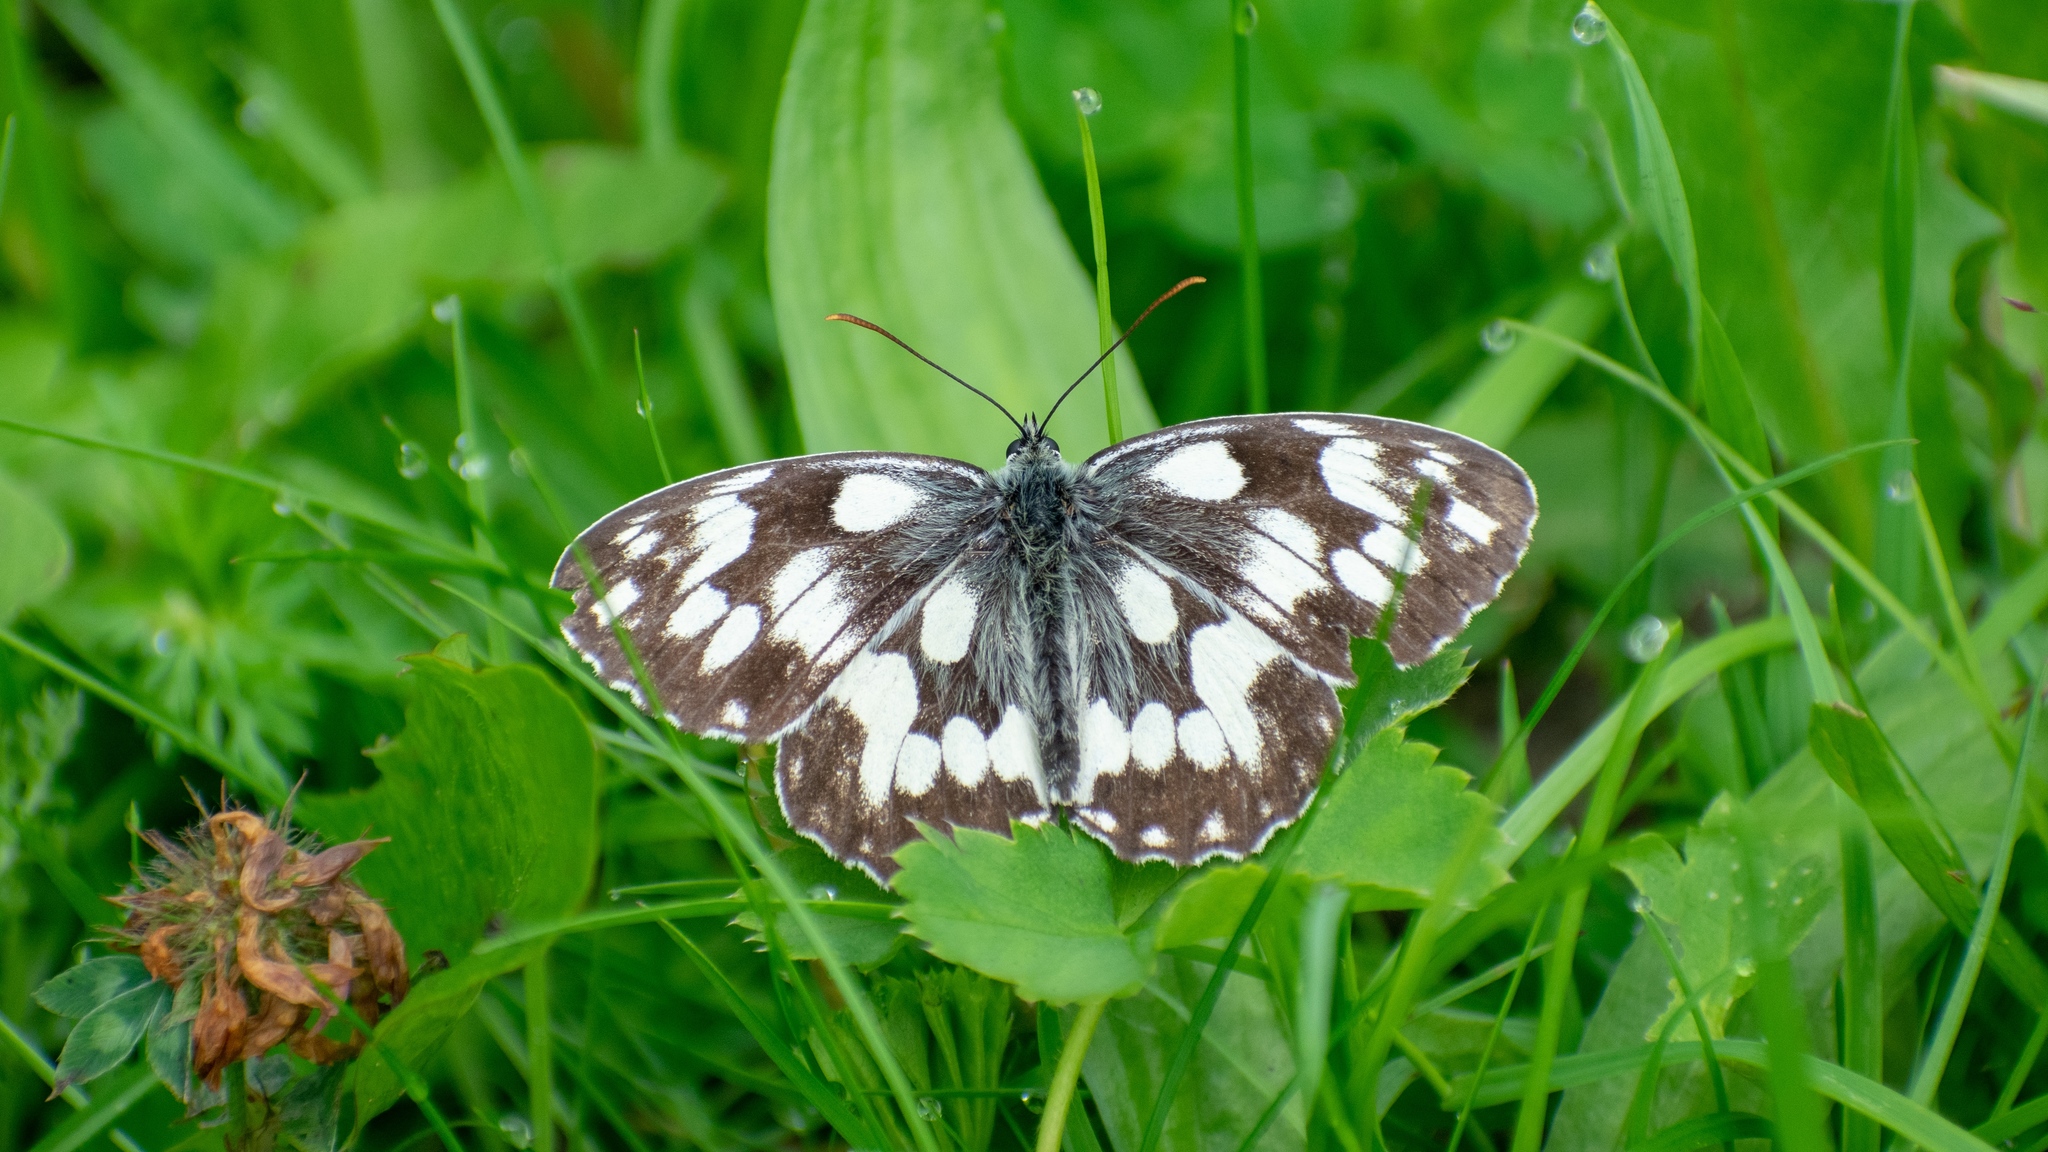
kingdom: Animalia
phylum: Arthropoda
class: Insecta
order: Lepidoptera
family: Nymphalidae
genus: Melanargia
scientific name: Melanargia galathea
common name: Marbled white
